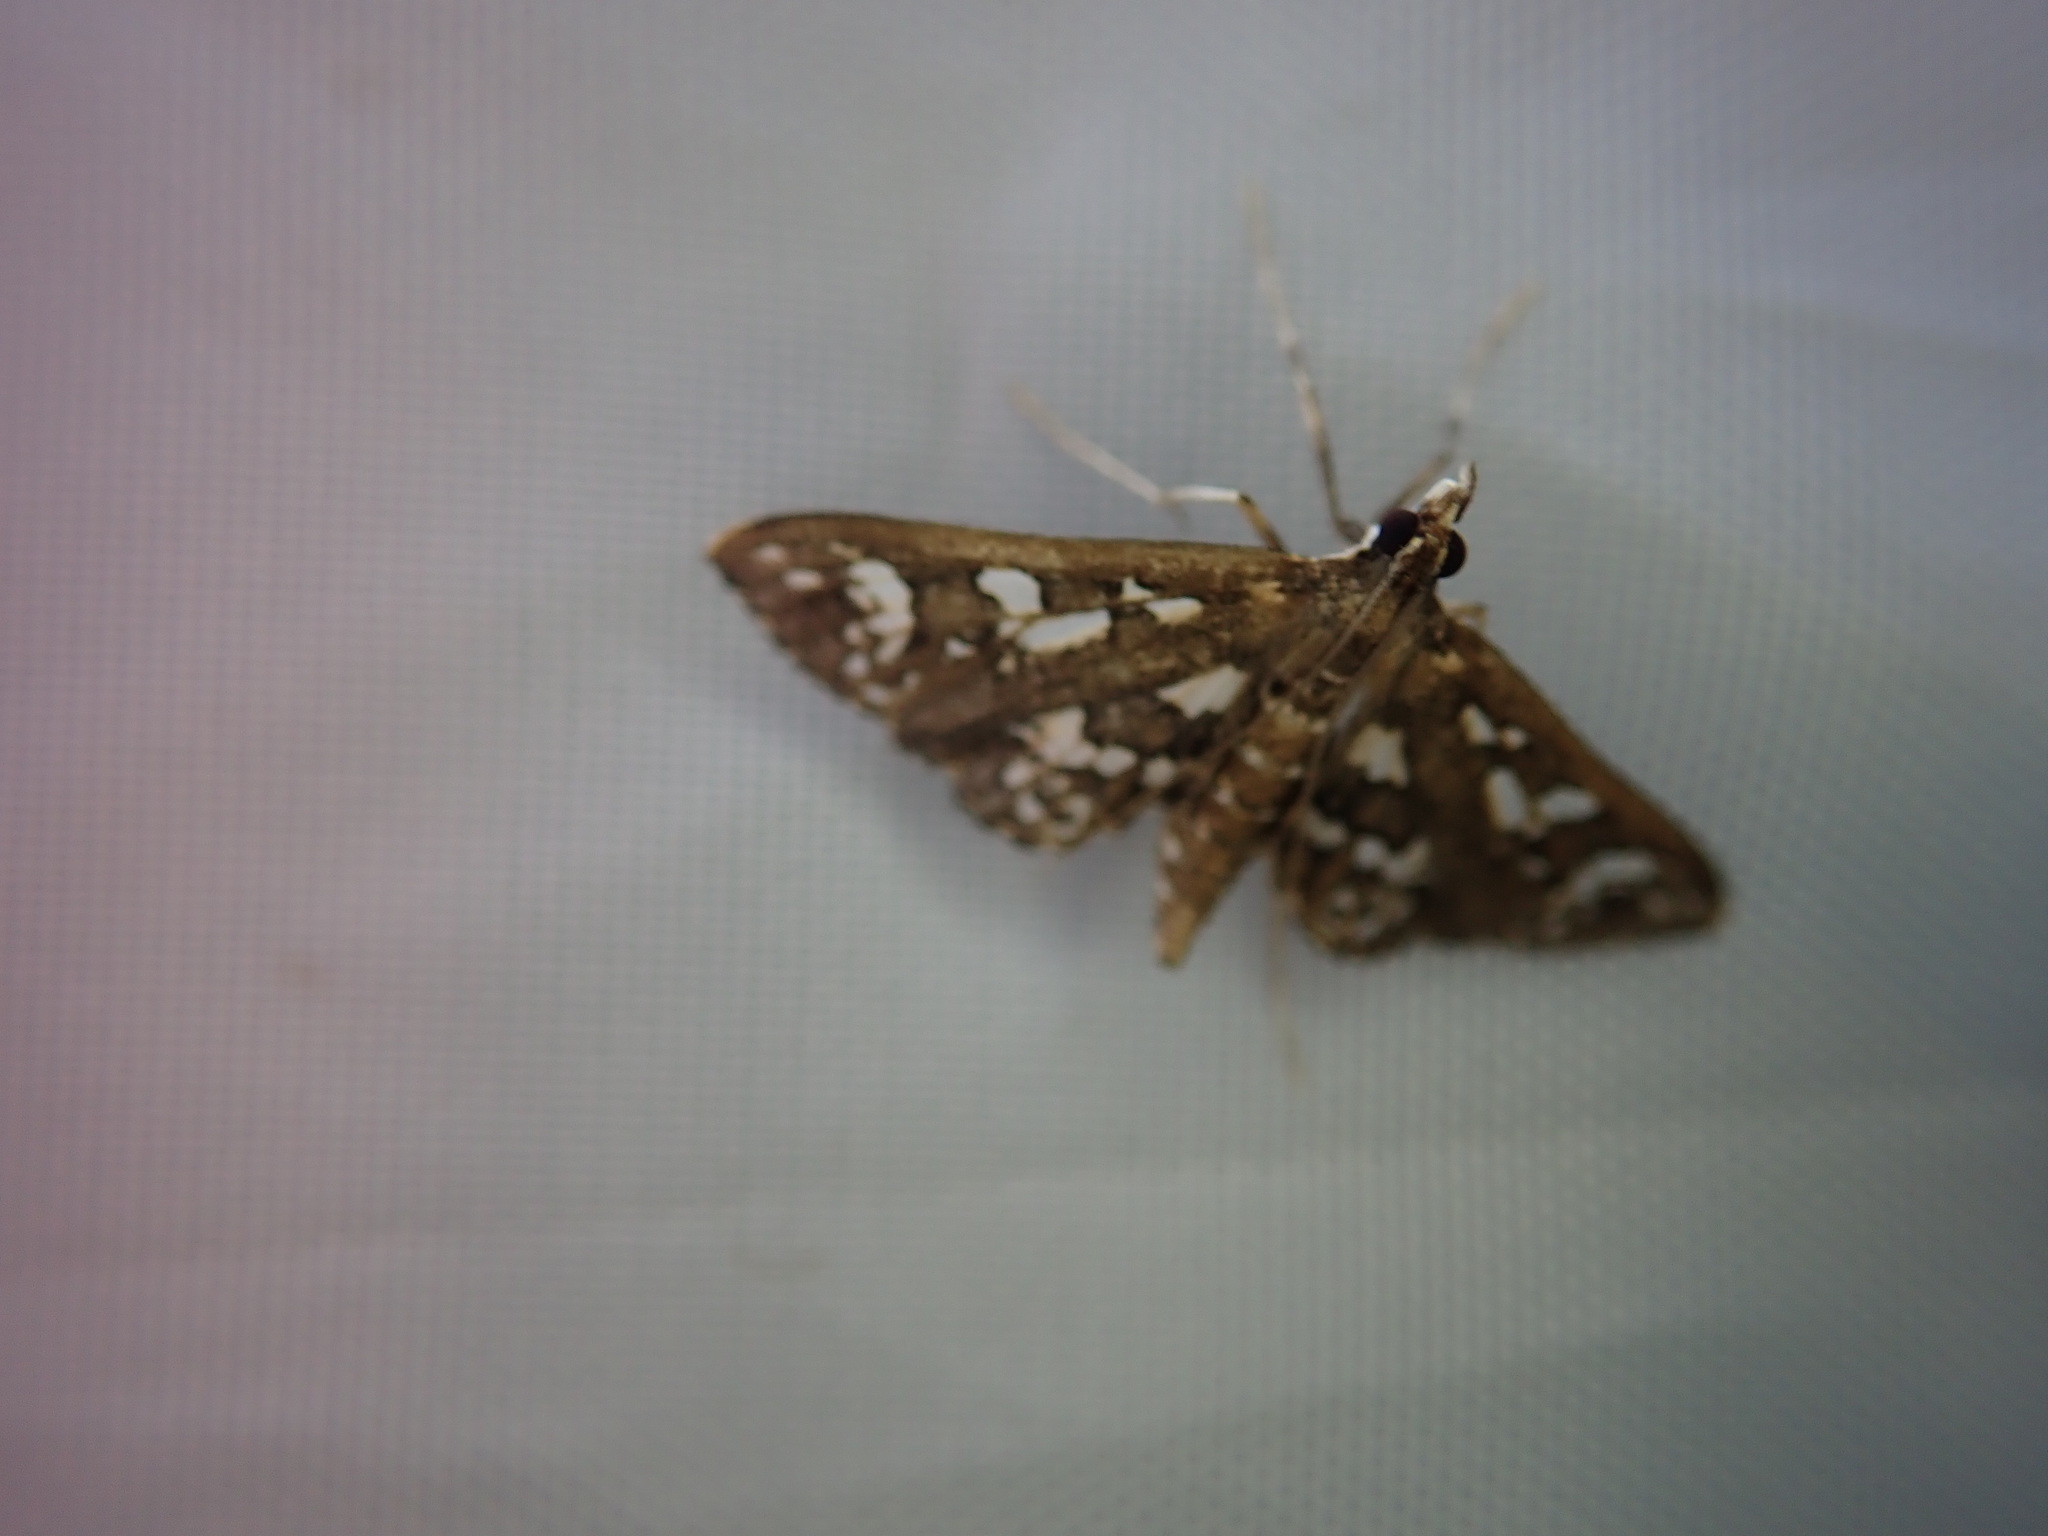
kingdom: Animalia
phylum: Arthropoda
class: Insecta
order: Lepidoptera
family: Crambidae
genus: Ischnurges
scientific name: Ischnurges illustralis
